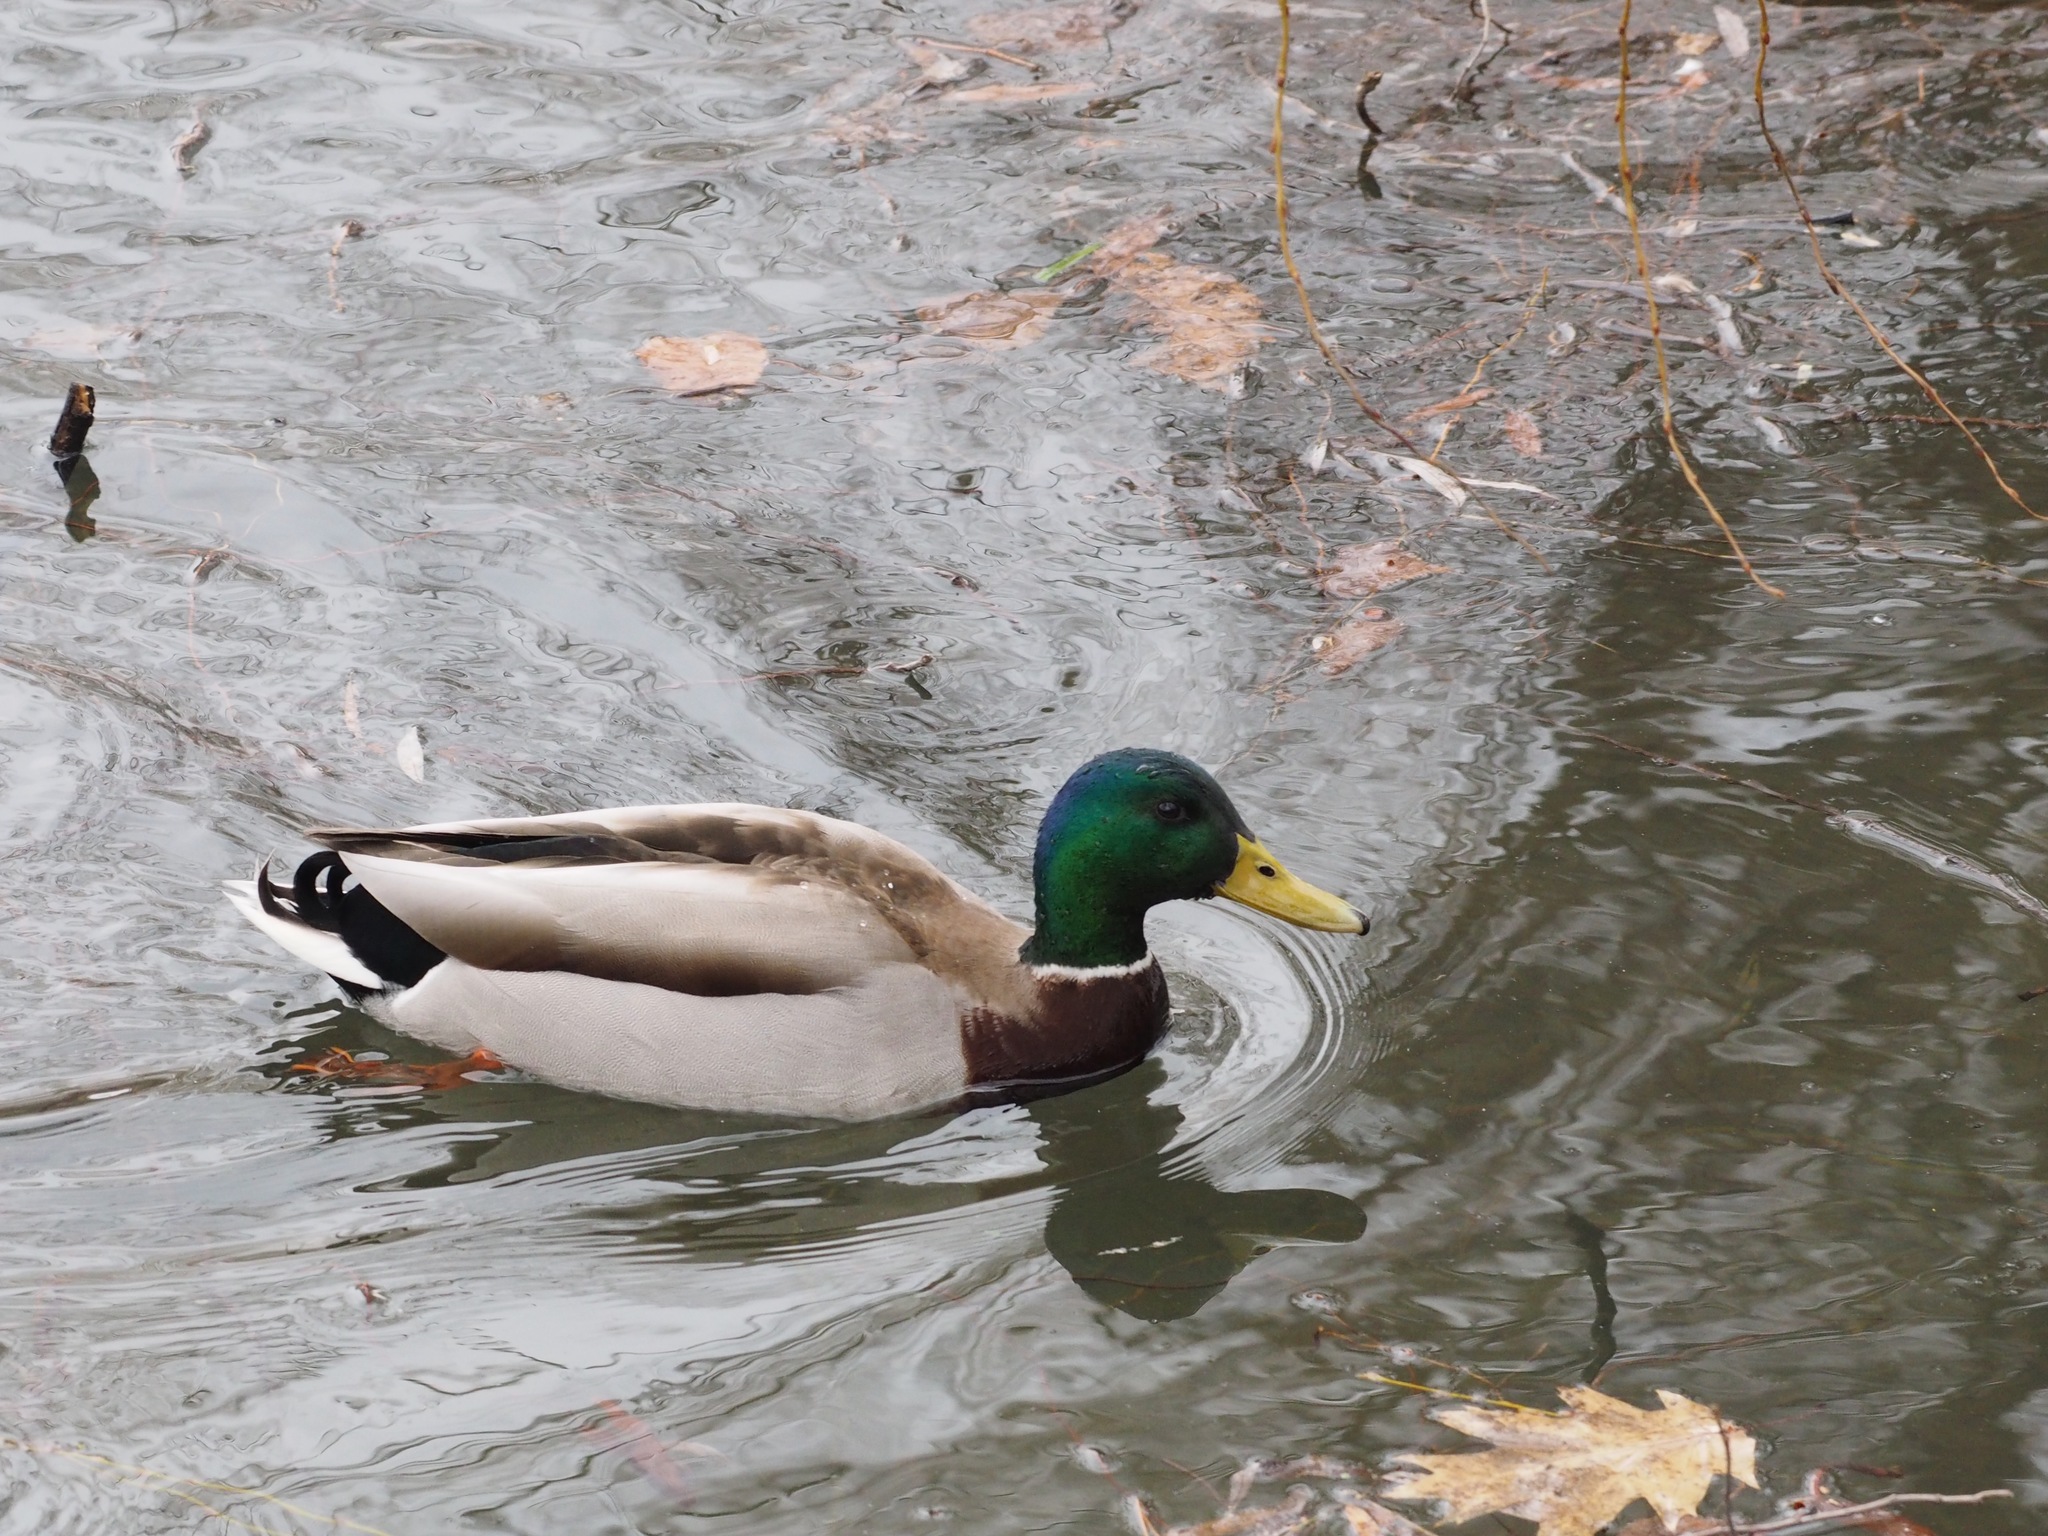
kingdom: Animalia
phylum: Chordata
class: Aves
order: Anseriformes
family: Anatidae
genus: Anas
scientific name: Anas platyrhynchos
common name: Mallard
